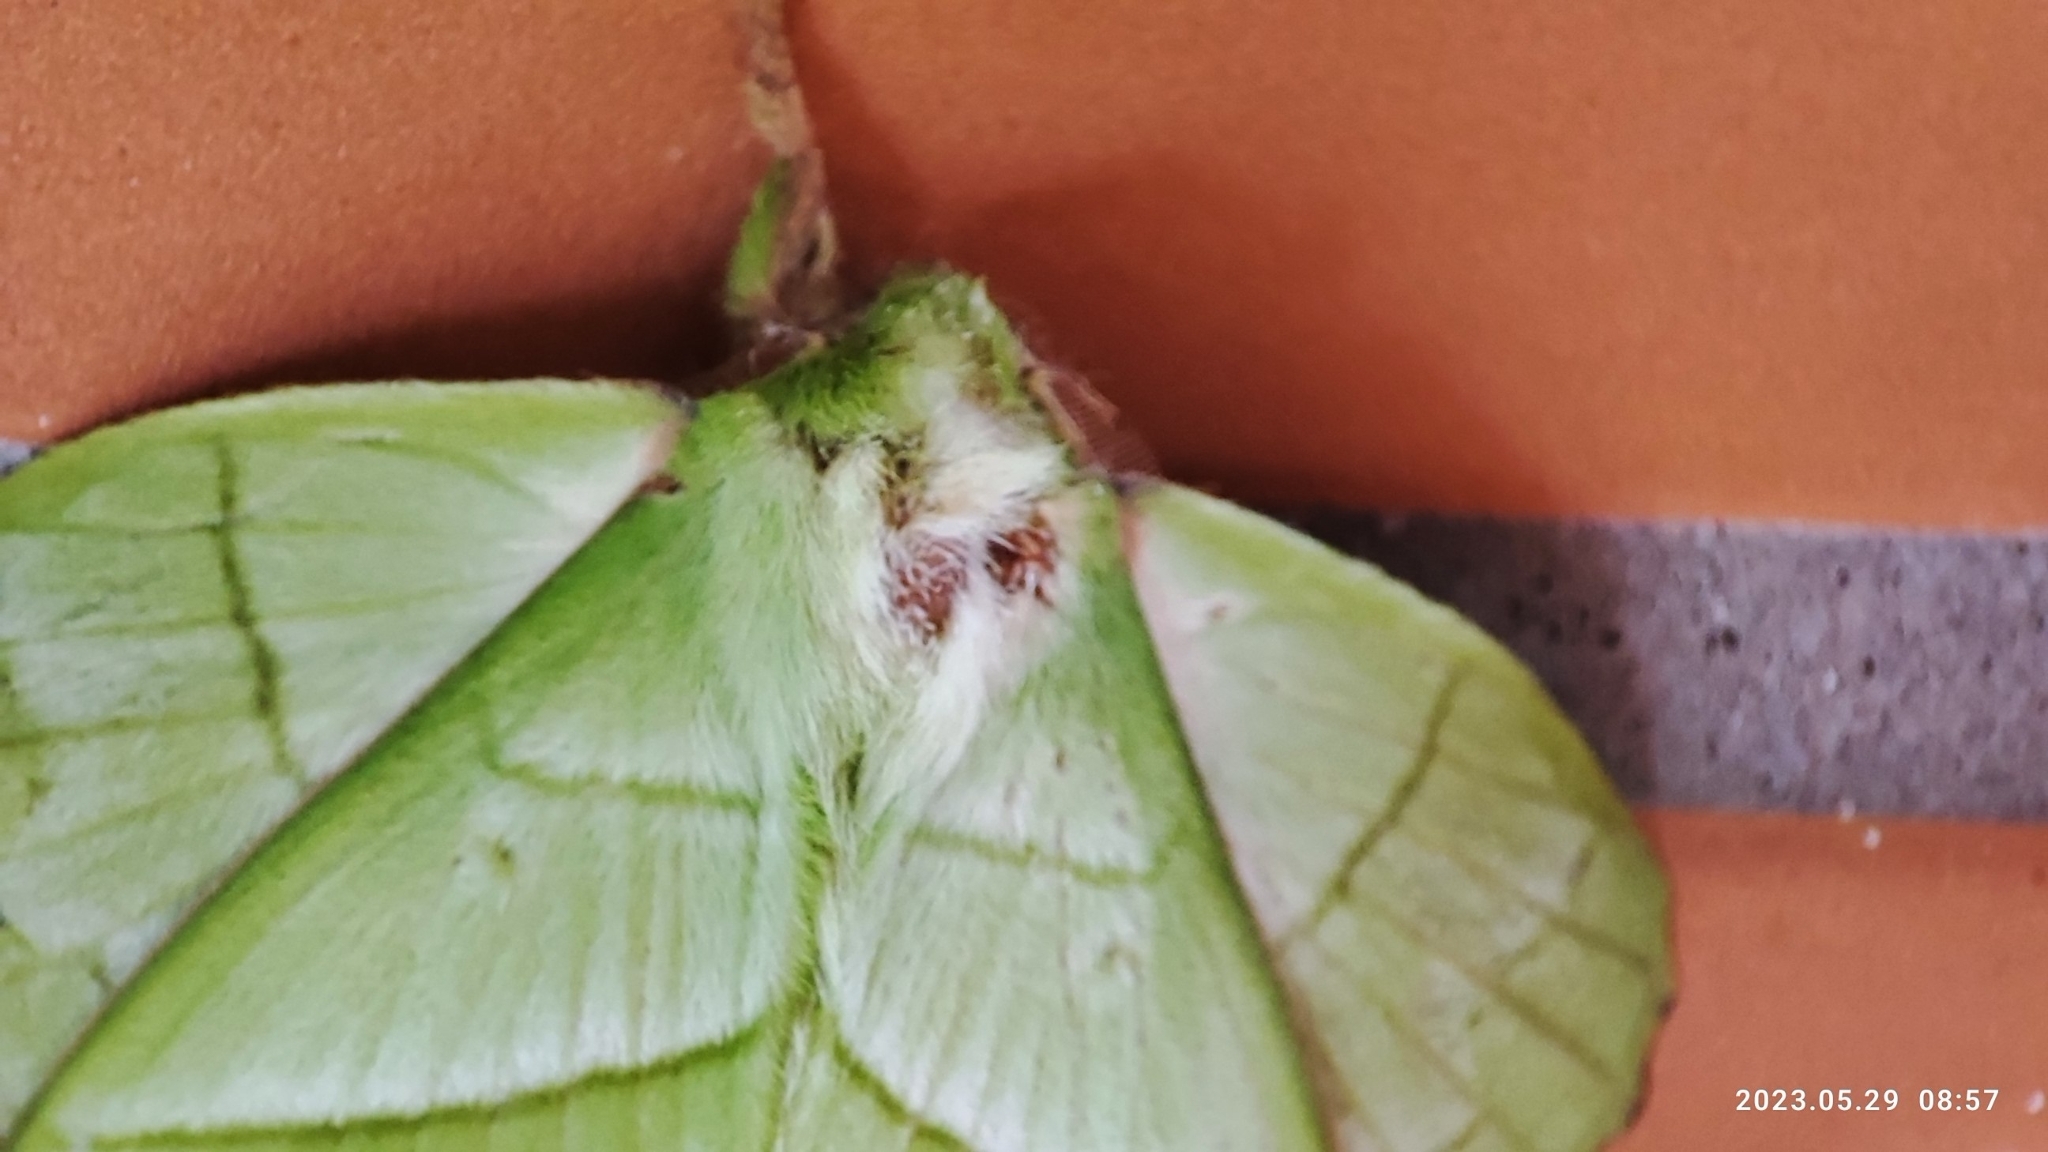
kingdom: Animalia
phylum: Arthropoda
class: Insecta
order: Lepidoptera
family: Lasiocampidae
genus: Trabala
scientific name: Trabala vishnou
